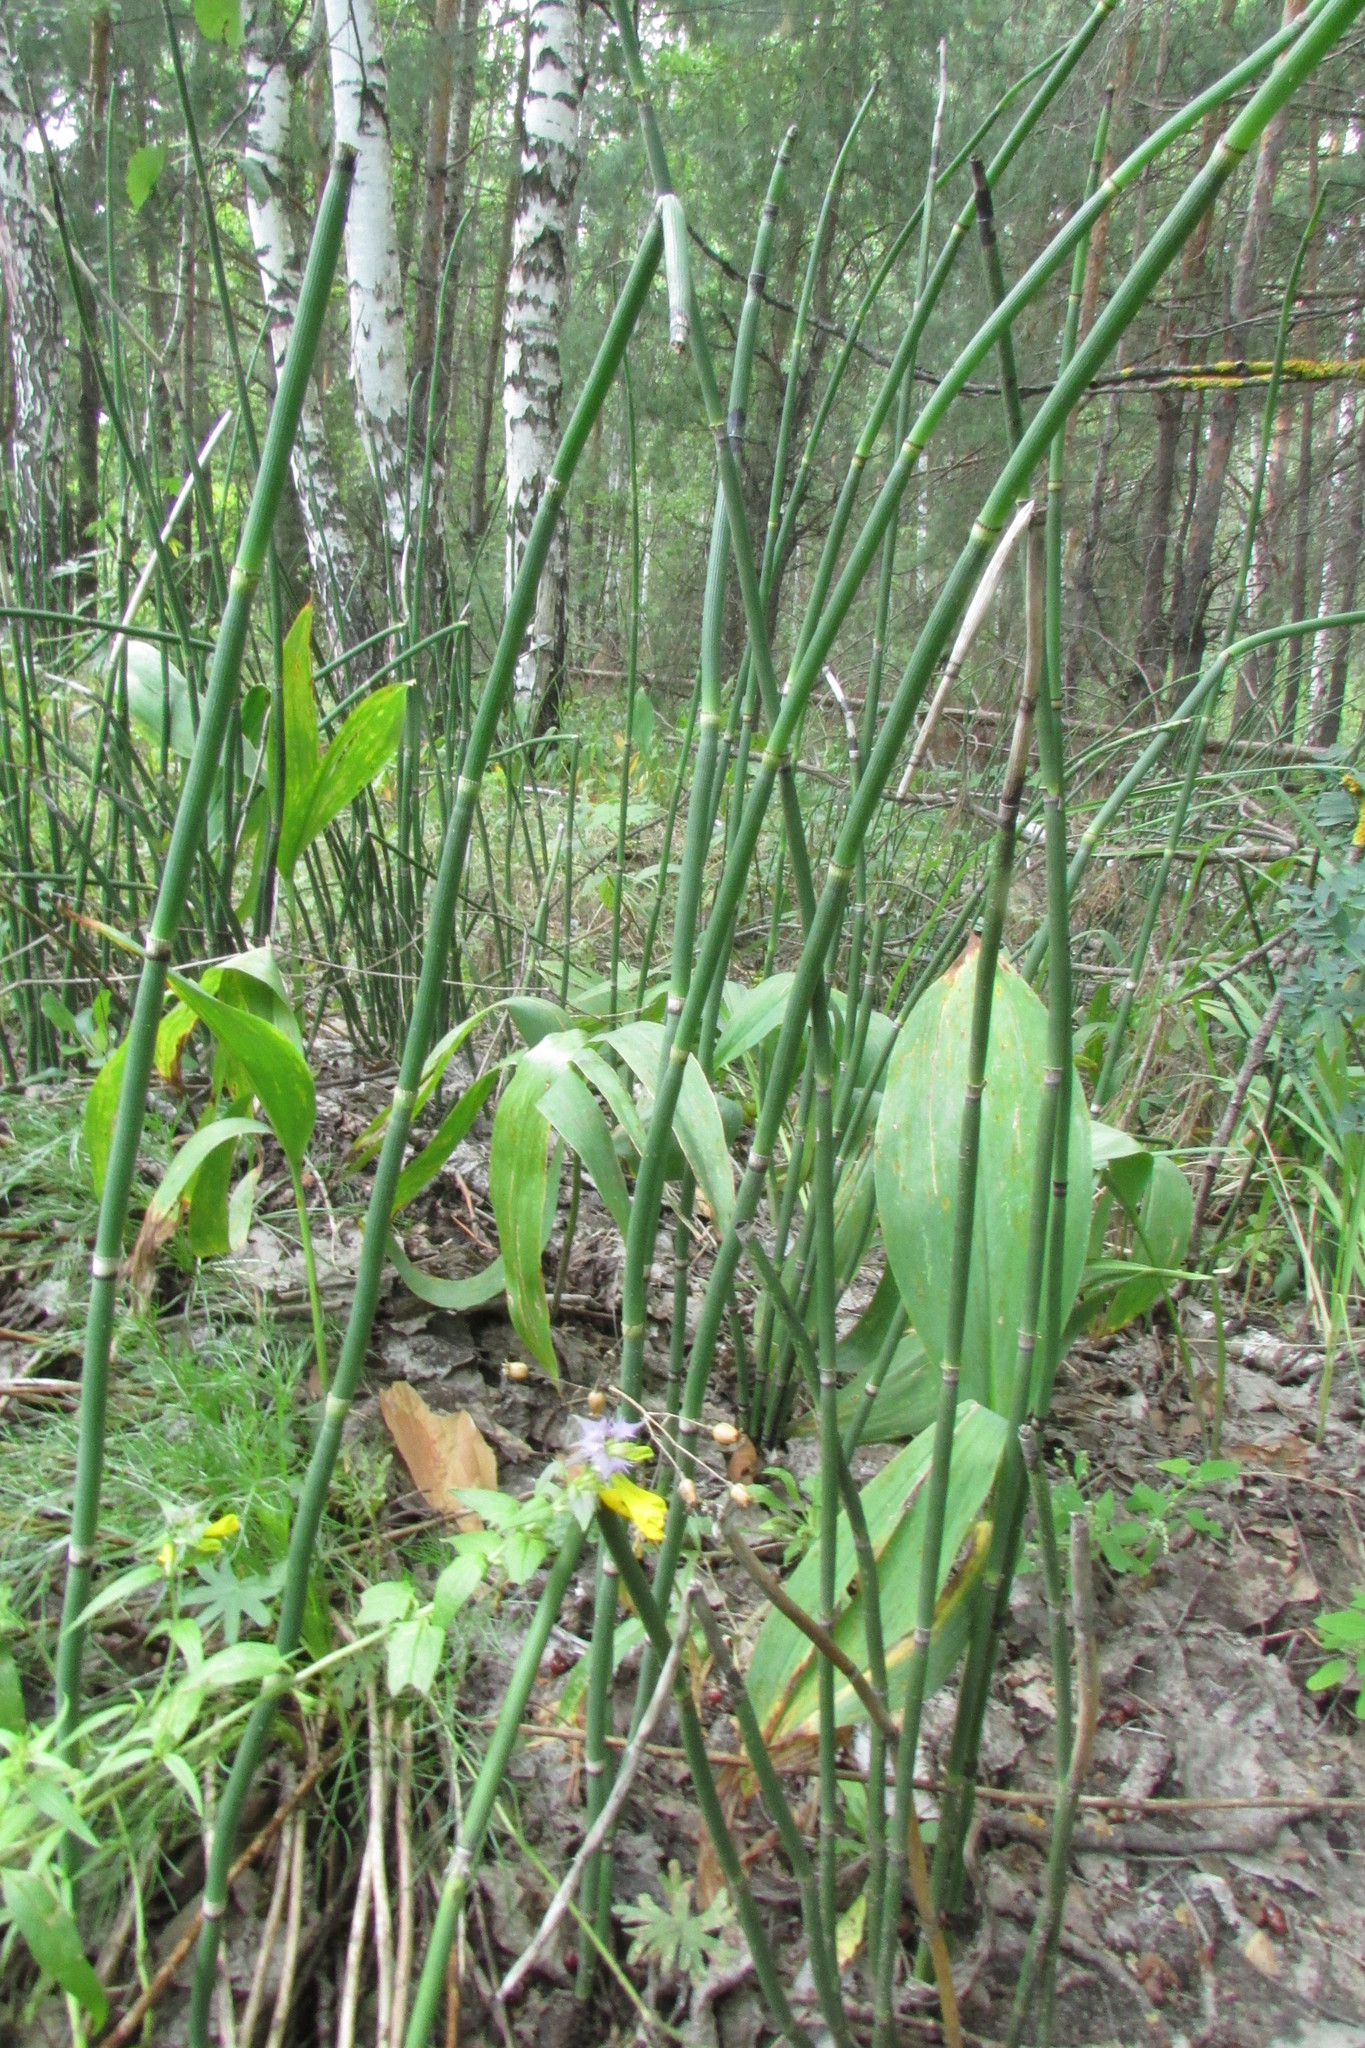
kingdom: Plantae
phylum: Tracheophyta
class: Polypodiopsida
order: Equisetales
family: Equisetaceae
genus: Equisetum
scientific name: Equisetum hyemale
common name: Rough horsetail
